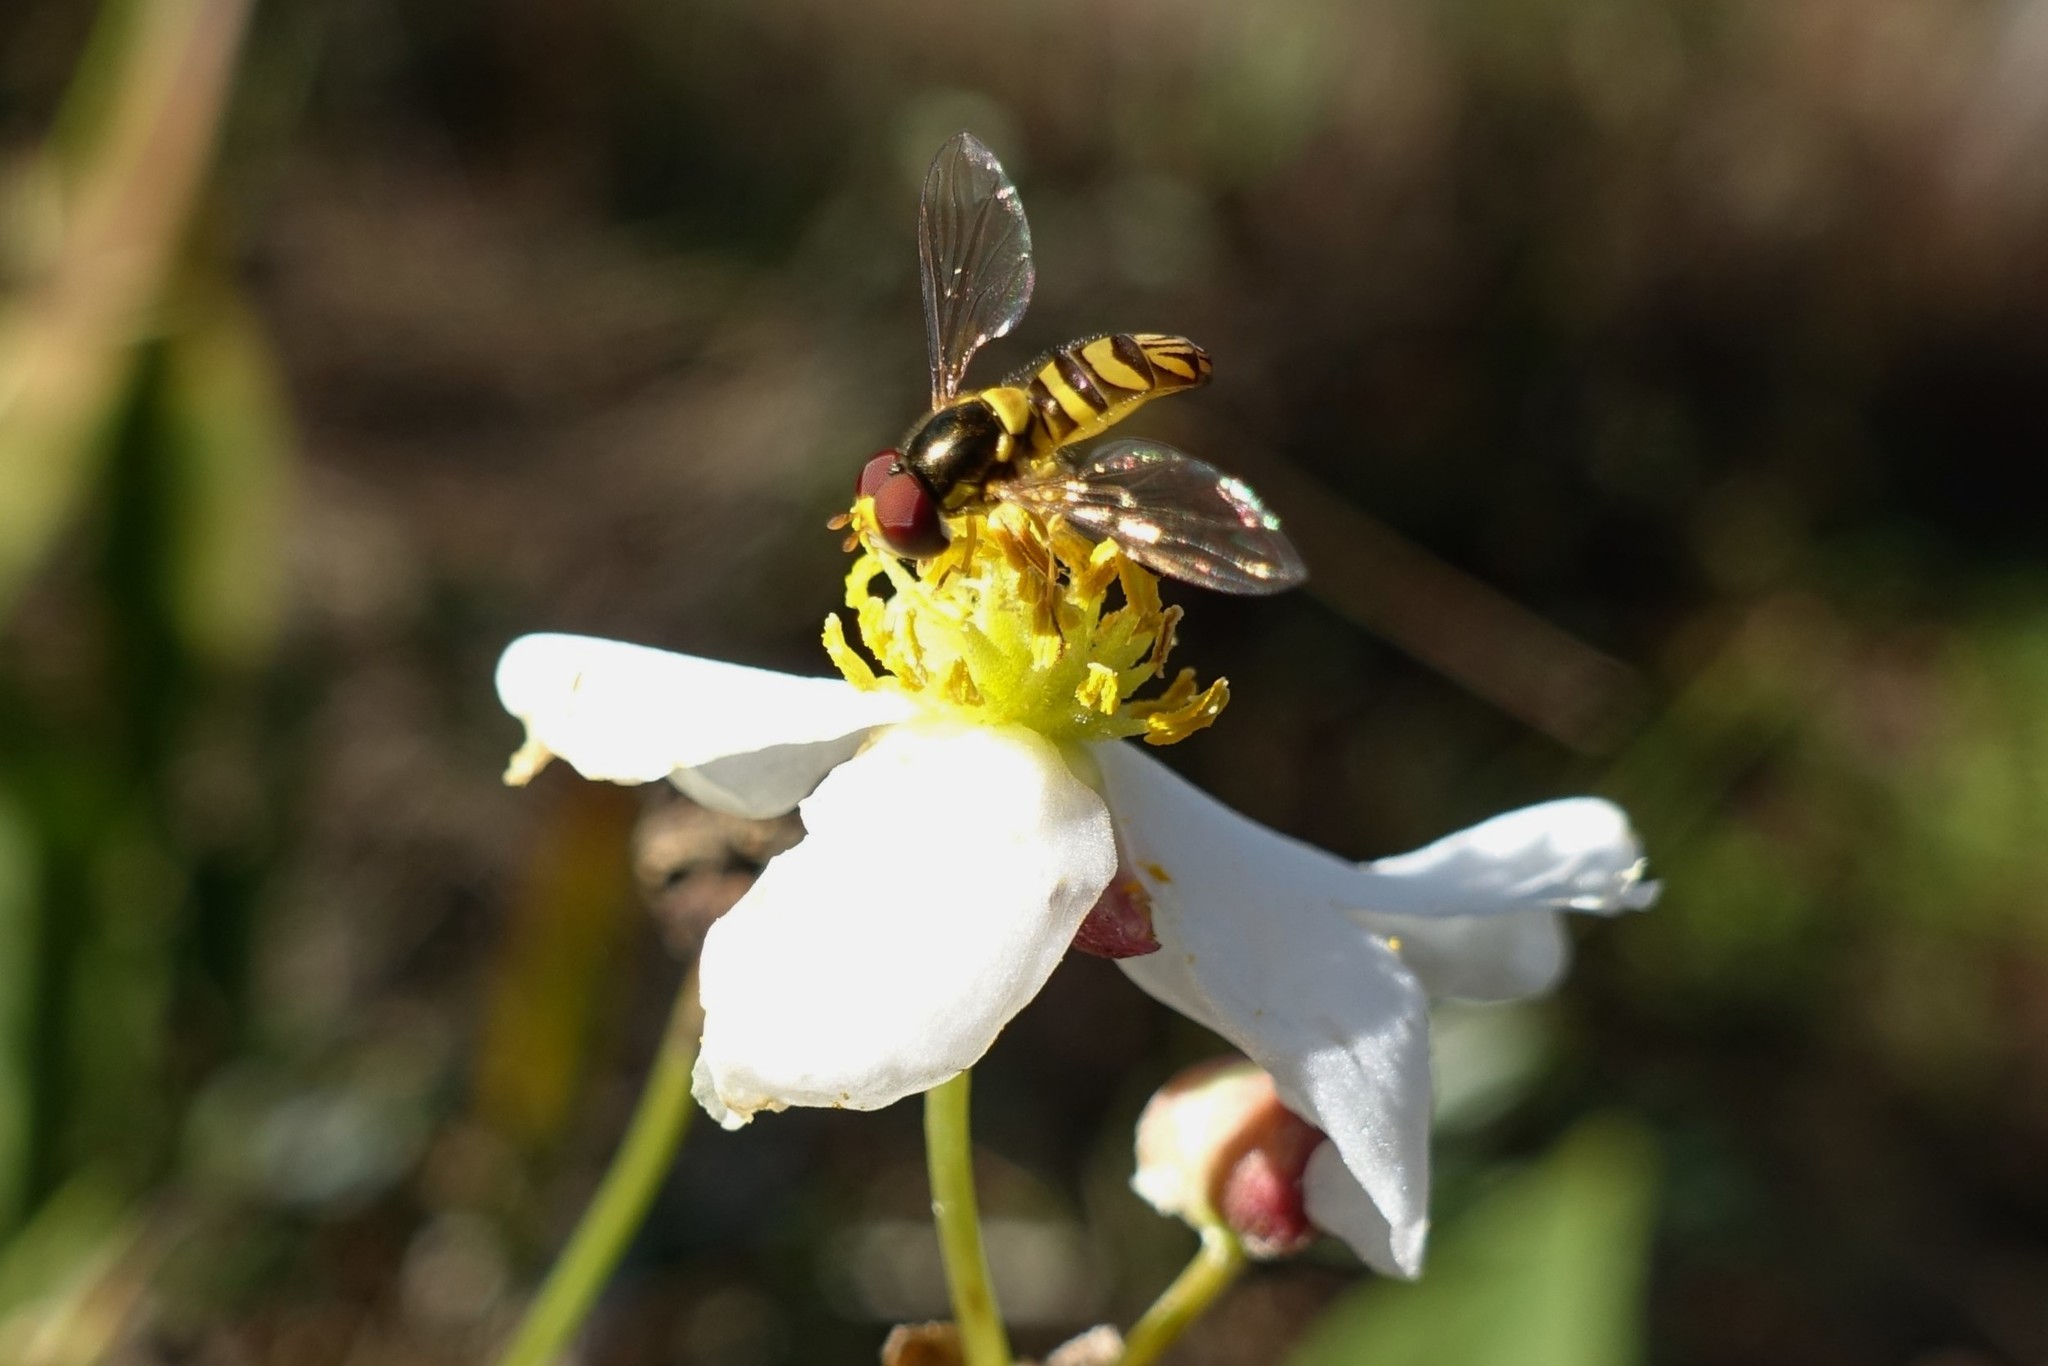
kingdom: Animalia
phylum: Arthropoda
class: Insecta
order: Diptera
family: Syrphidae
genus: Allograpta
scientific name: Allograpta obliqua
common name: Common oblique syrphid
